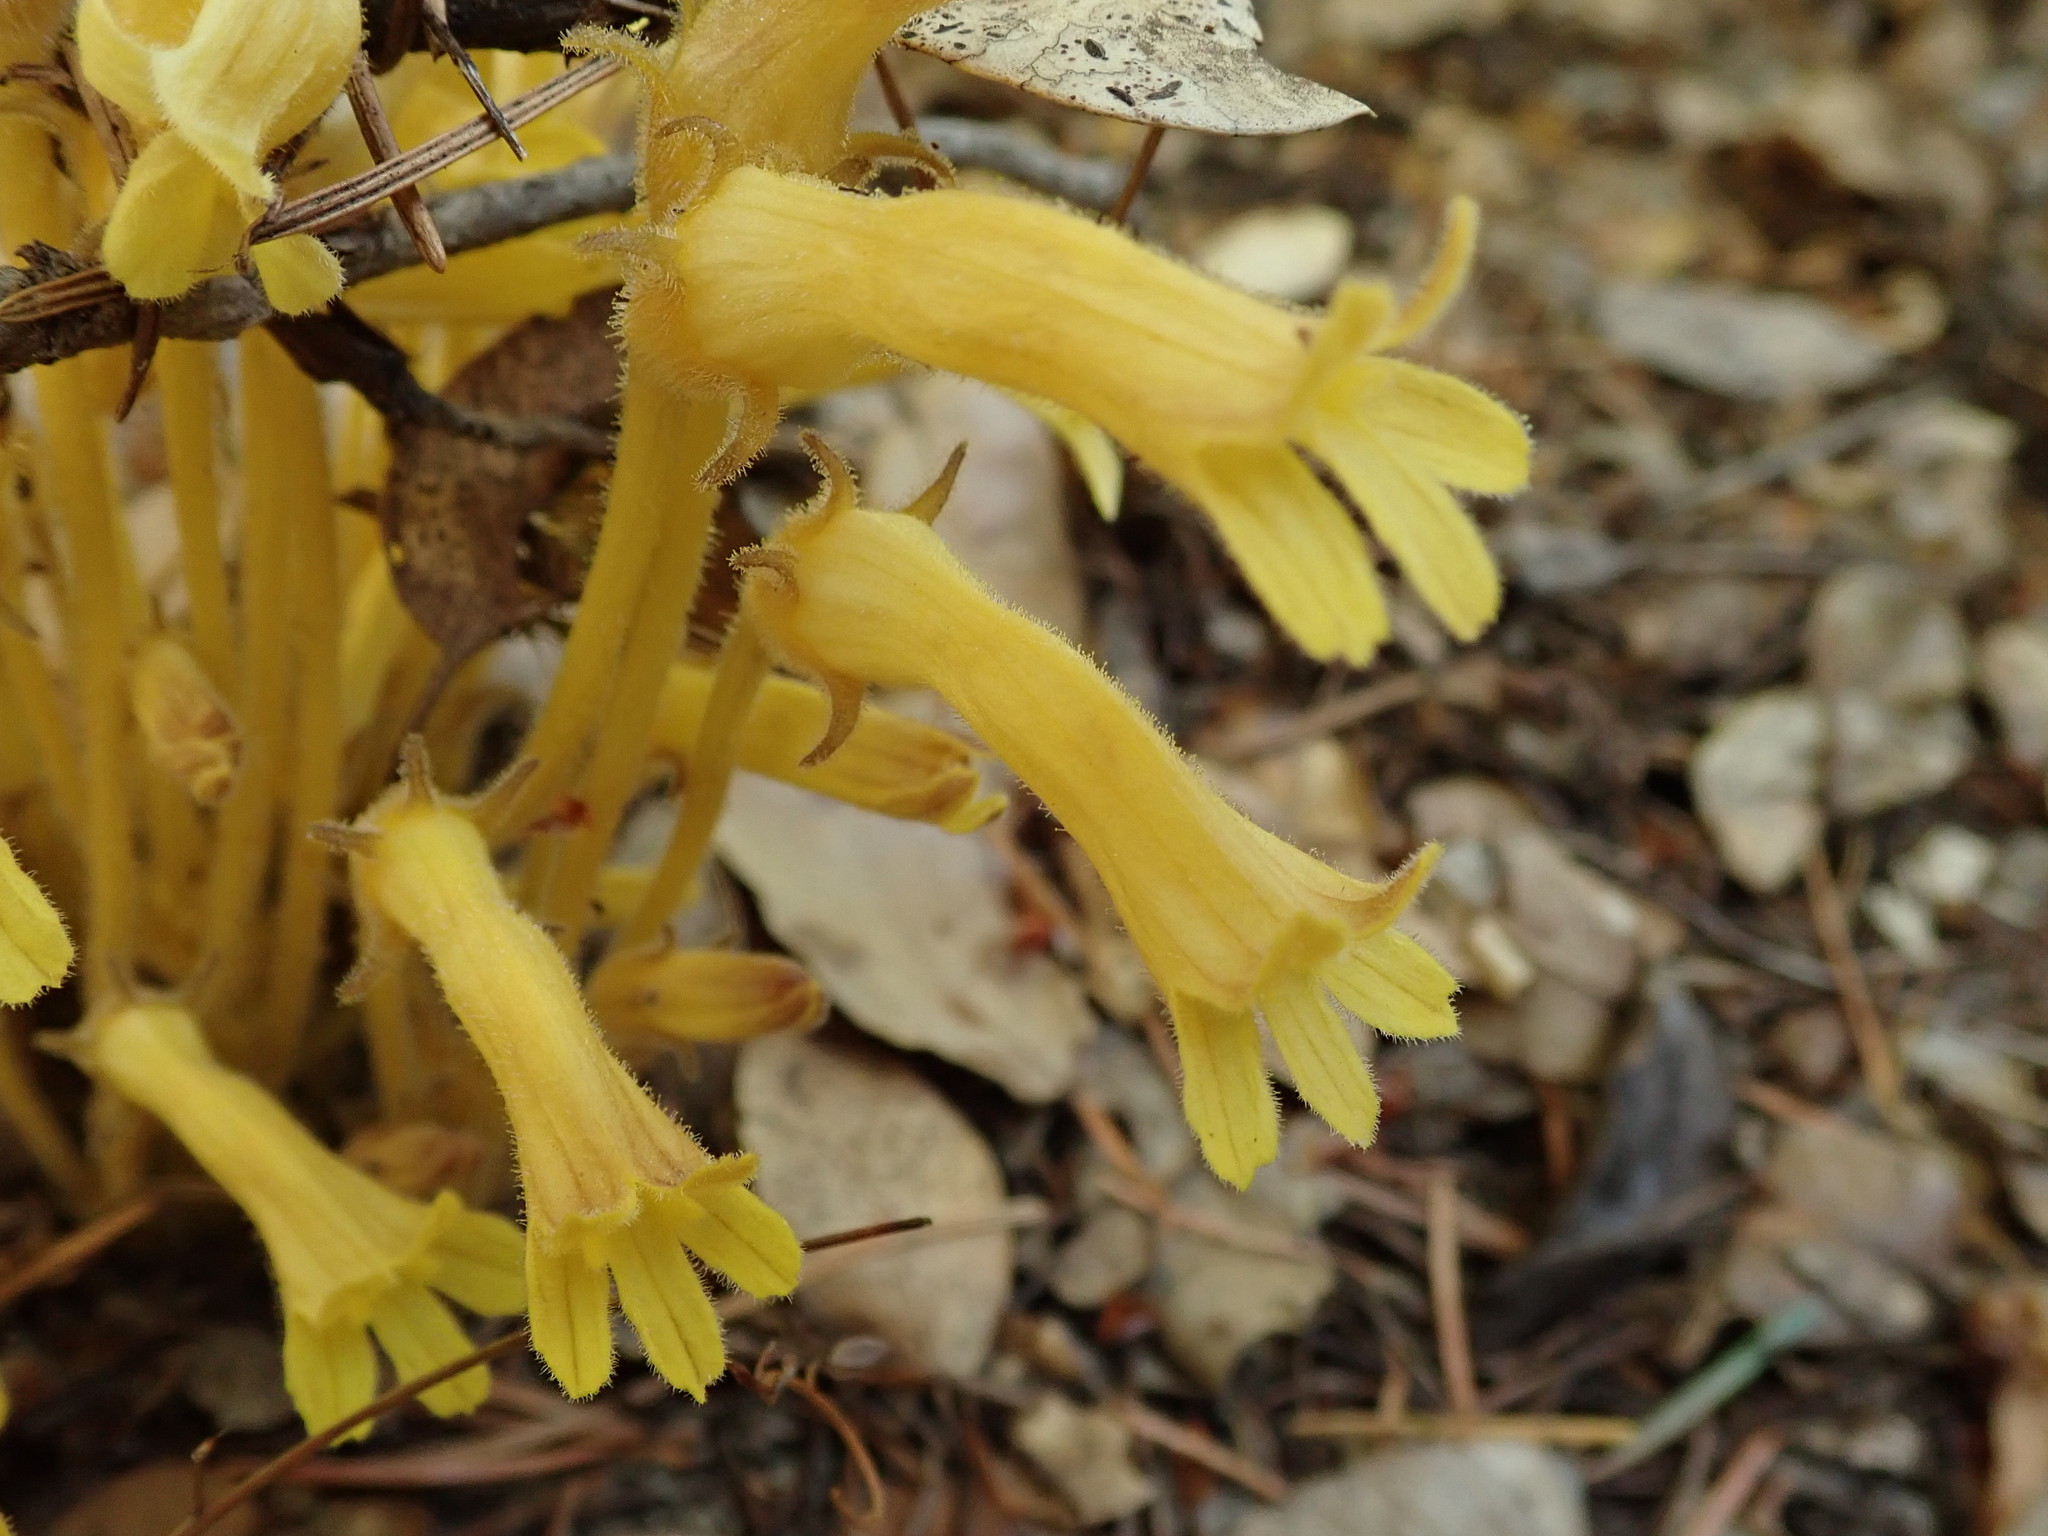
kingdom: Plantae
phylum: Tracheophyta
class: Magnoliopsida
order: Lamiales
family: Orobanchaceae
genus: Aphyllon
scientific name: Aphyllon franciscanum
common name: San francisco broomrape
